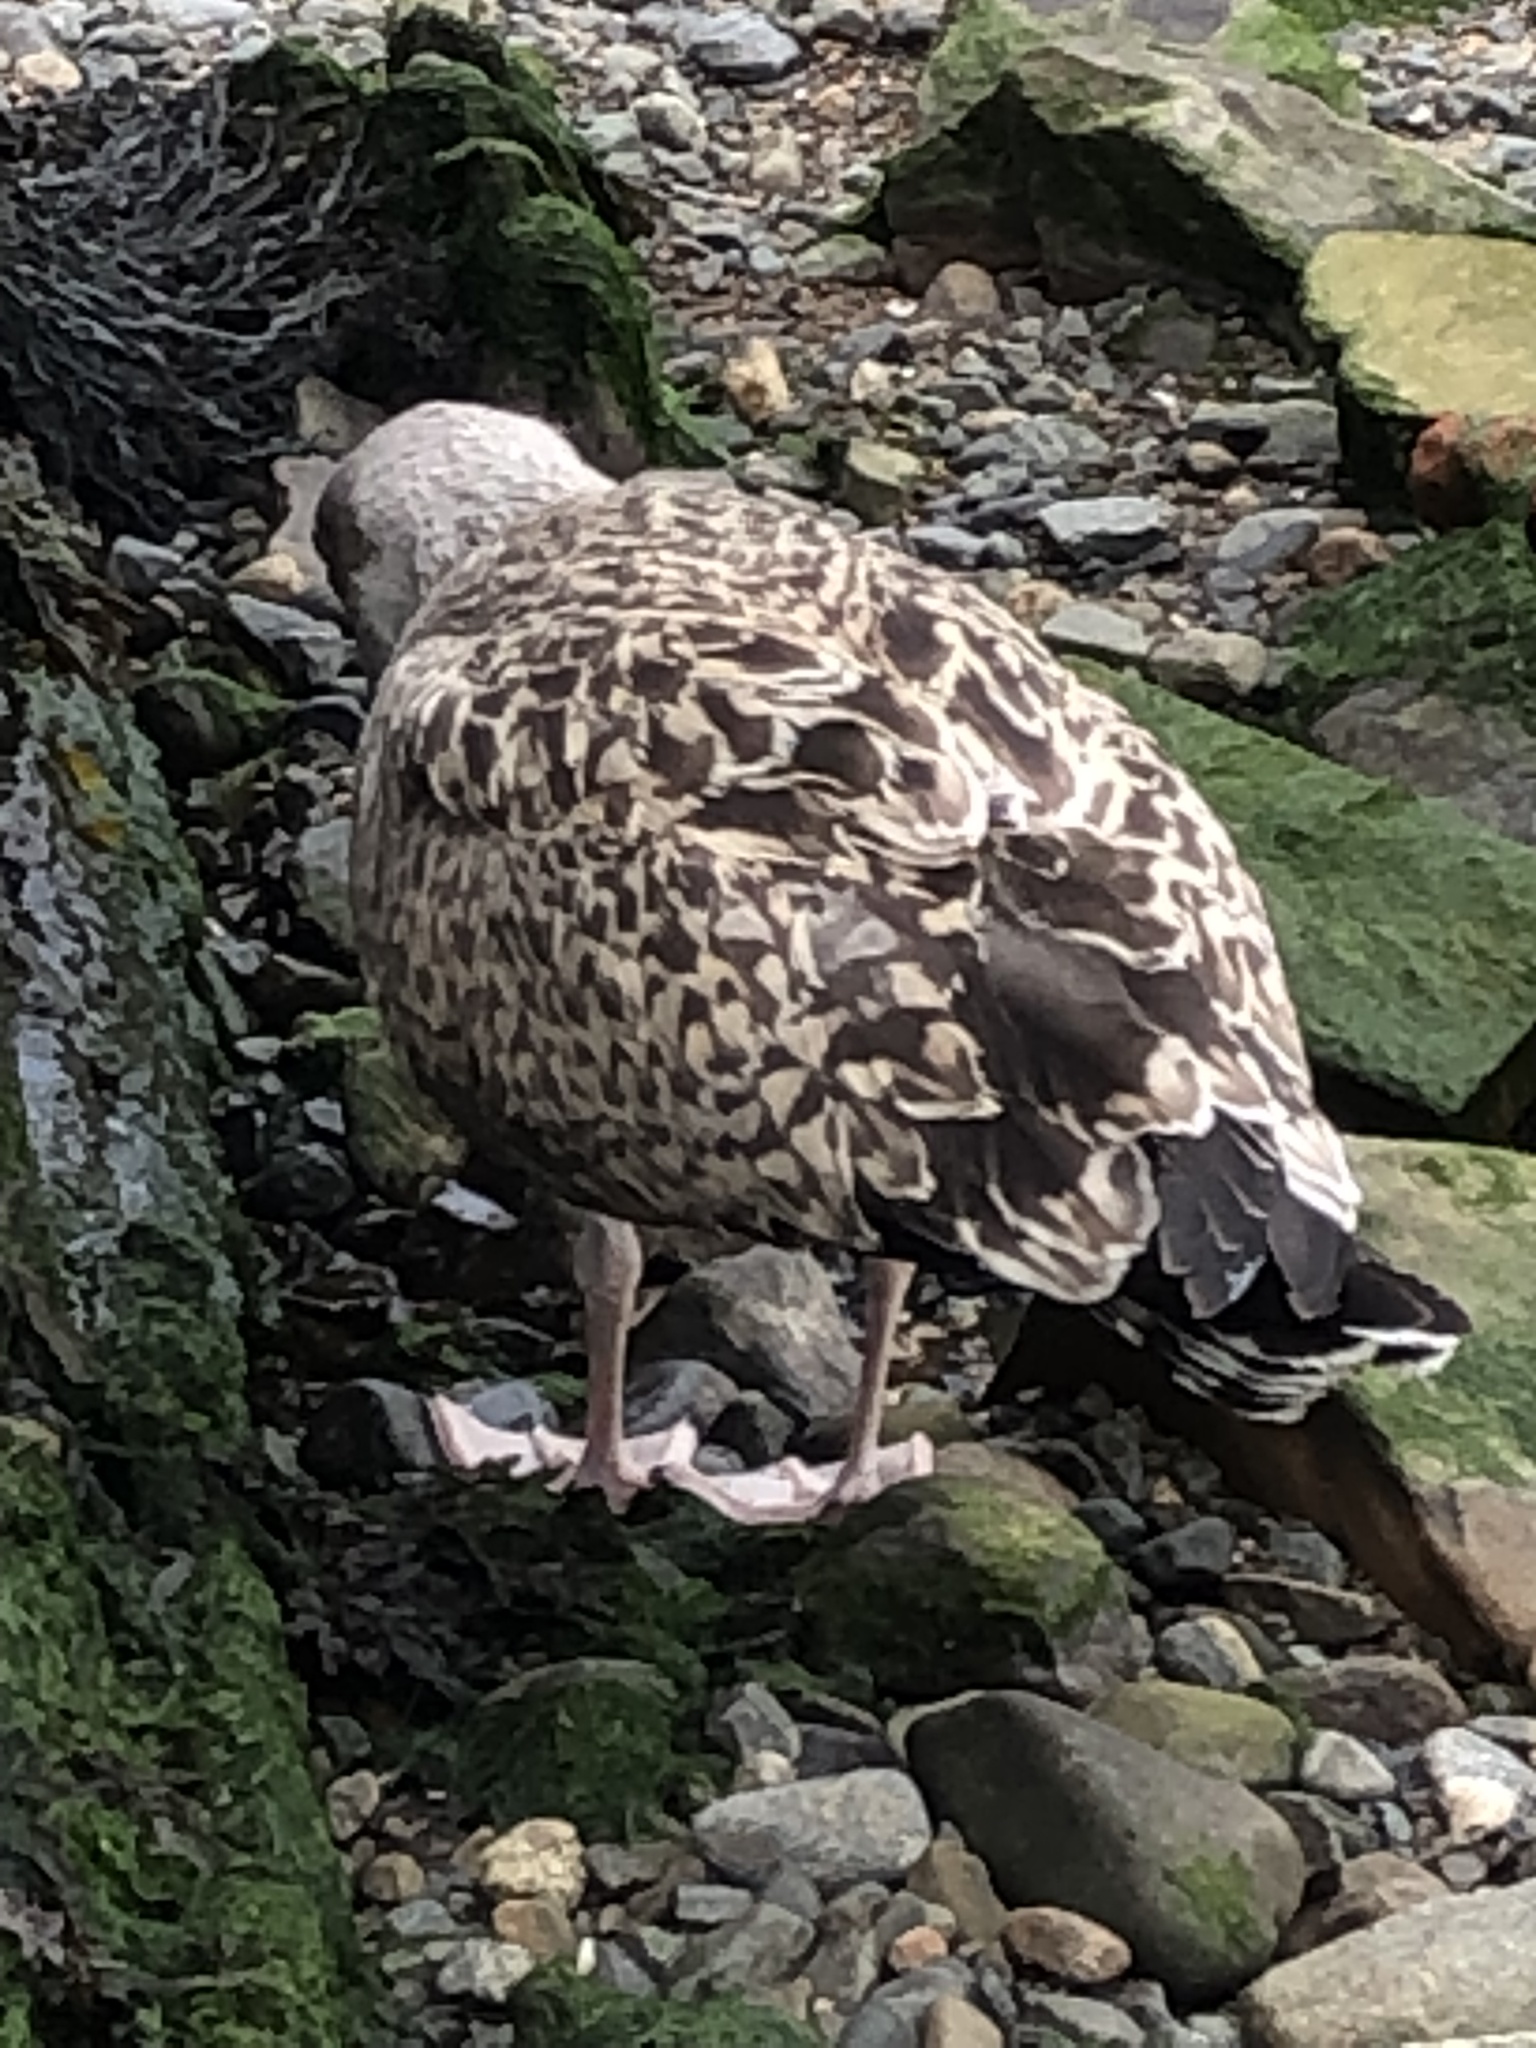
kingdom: Animalia
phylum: Chordata
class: Aves
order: Charadriiformes
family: Laridae
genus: Larus
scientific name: Larus marinus
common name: Great black-backed gull
